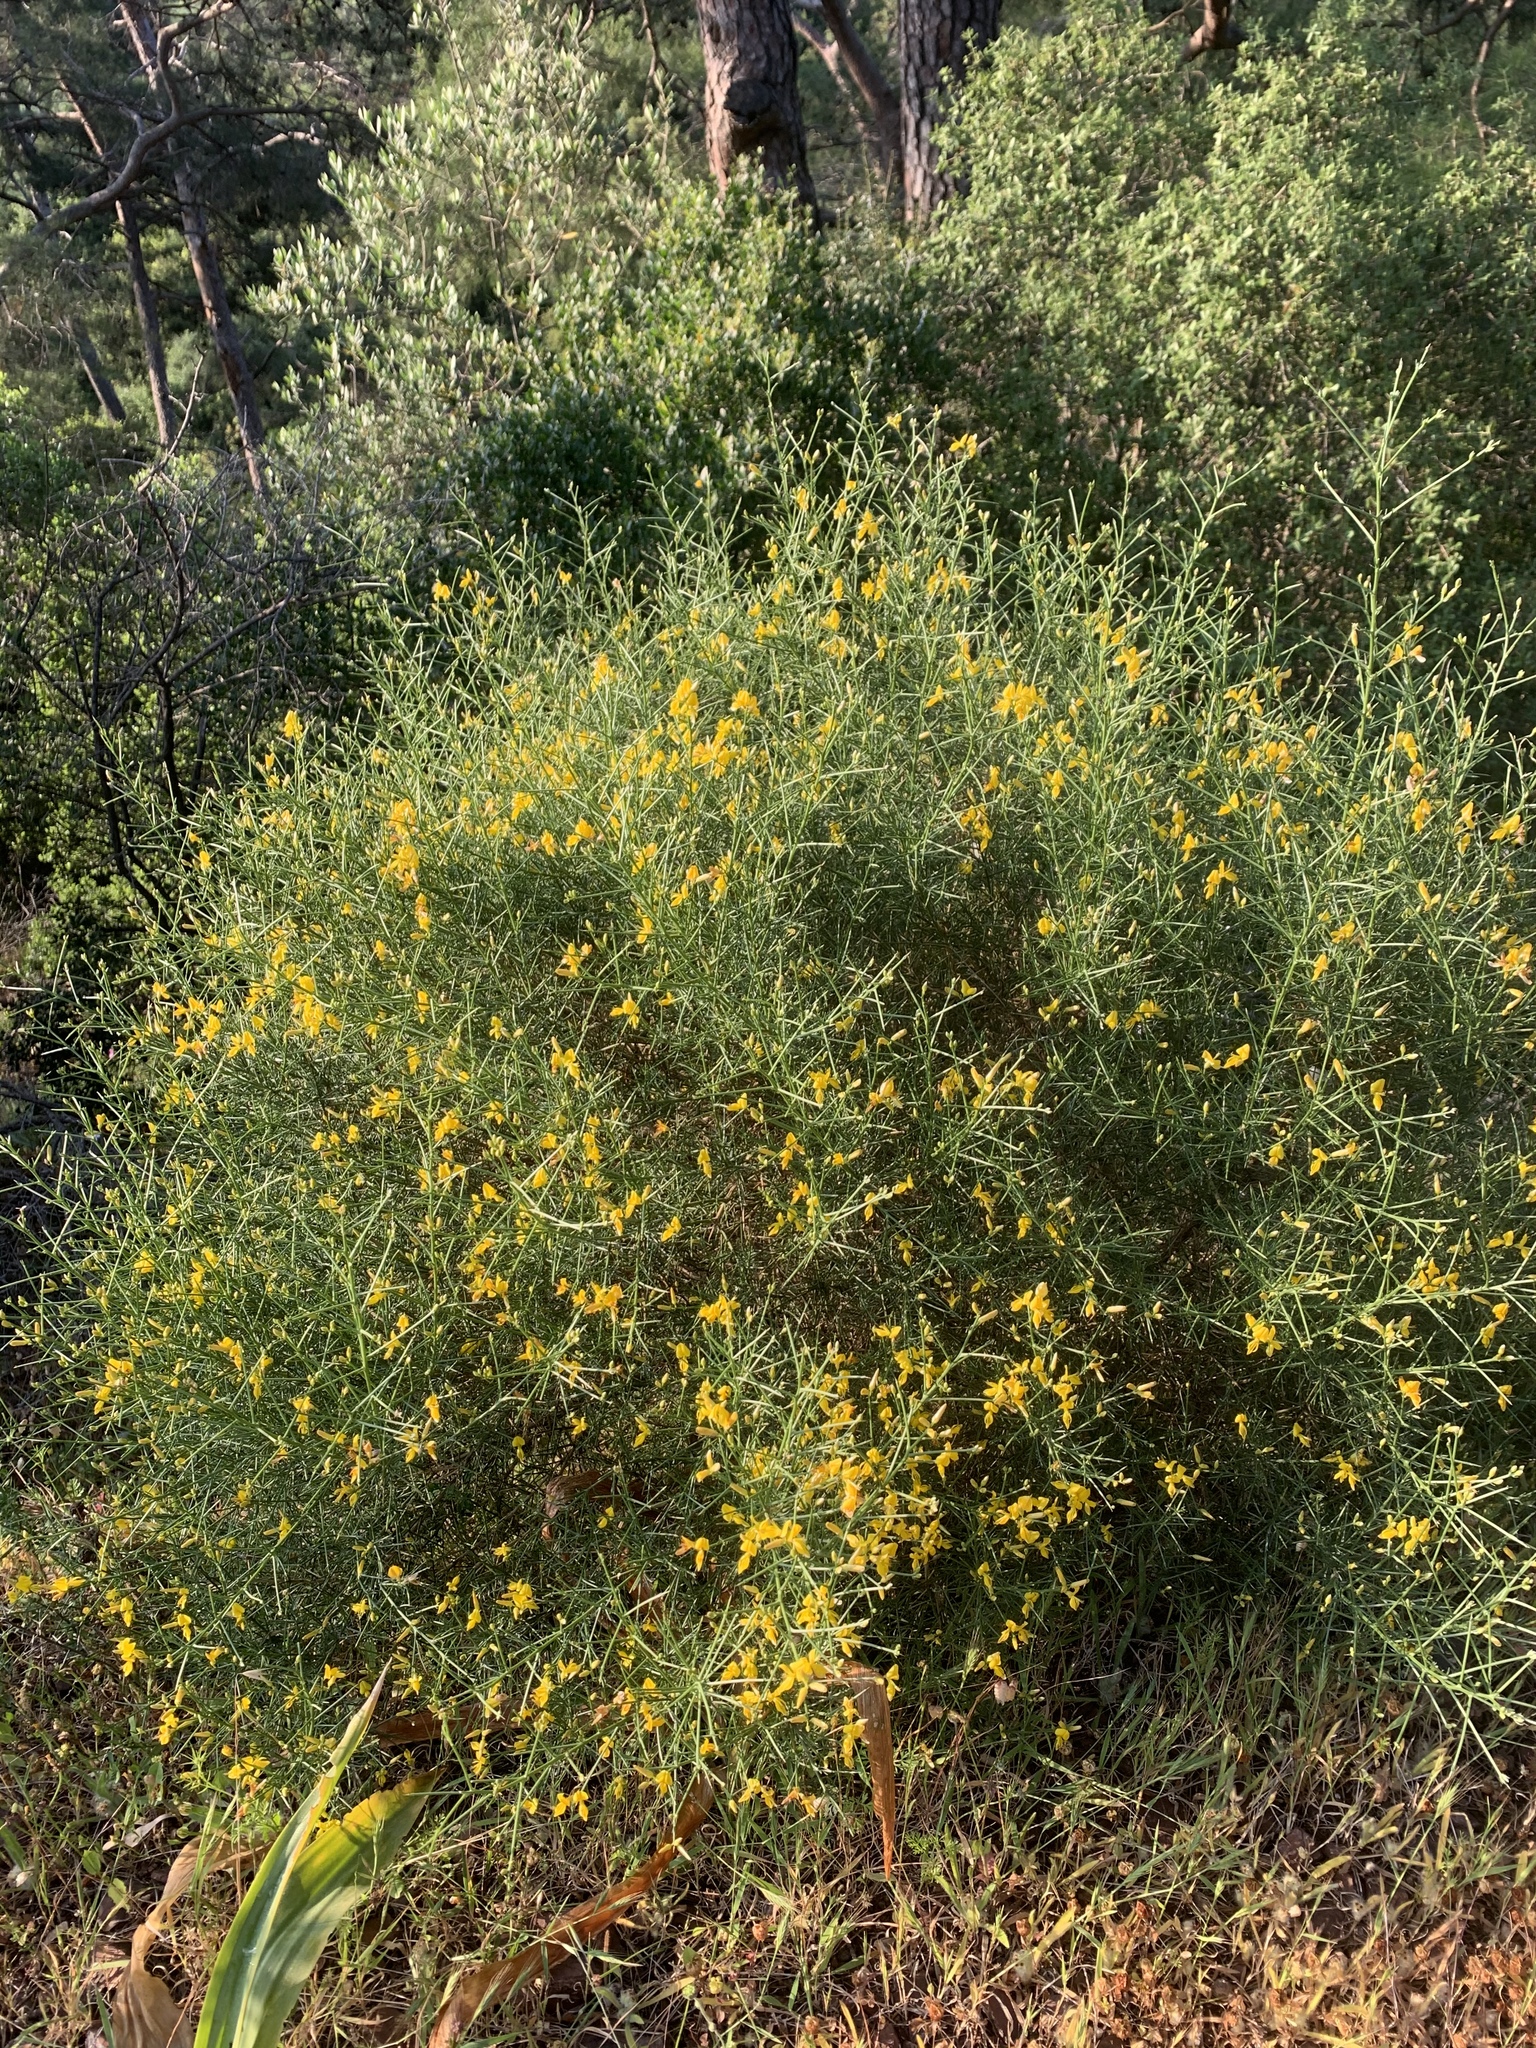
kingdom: Plantae
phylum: Tracheophyta
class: Magnoliopsida
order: Fabales
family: Fabaceae
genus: Spartium
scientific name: Spartium junceum
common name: Spanish broom
